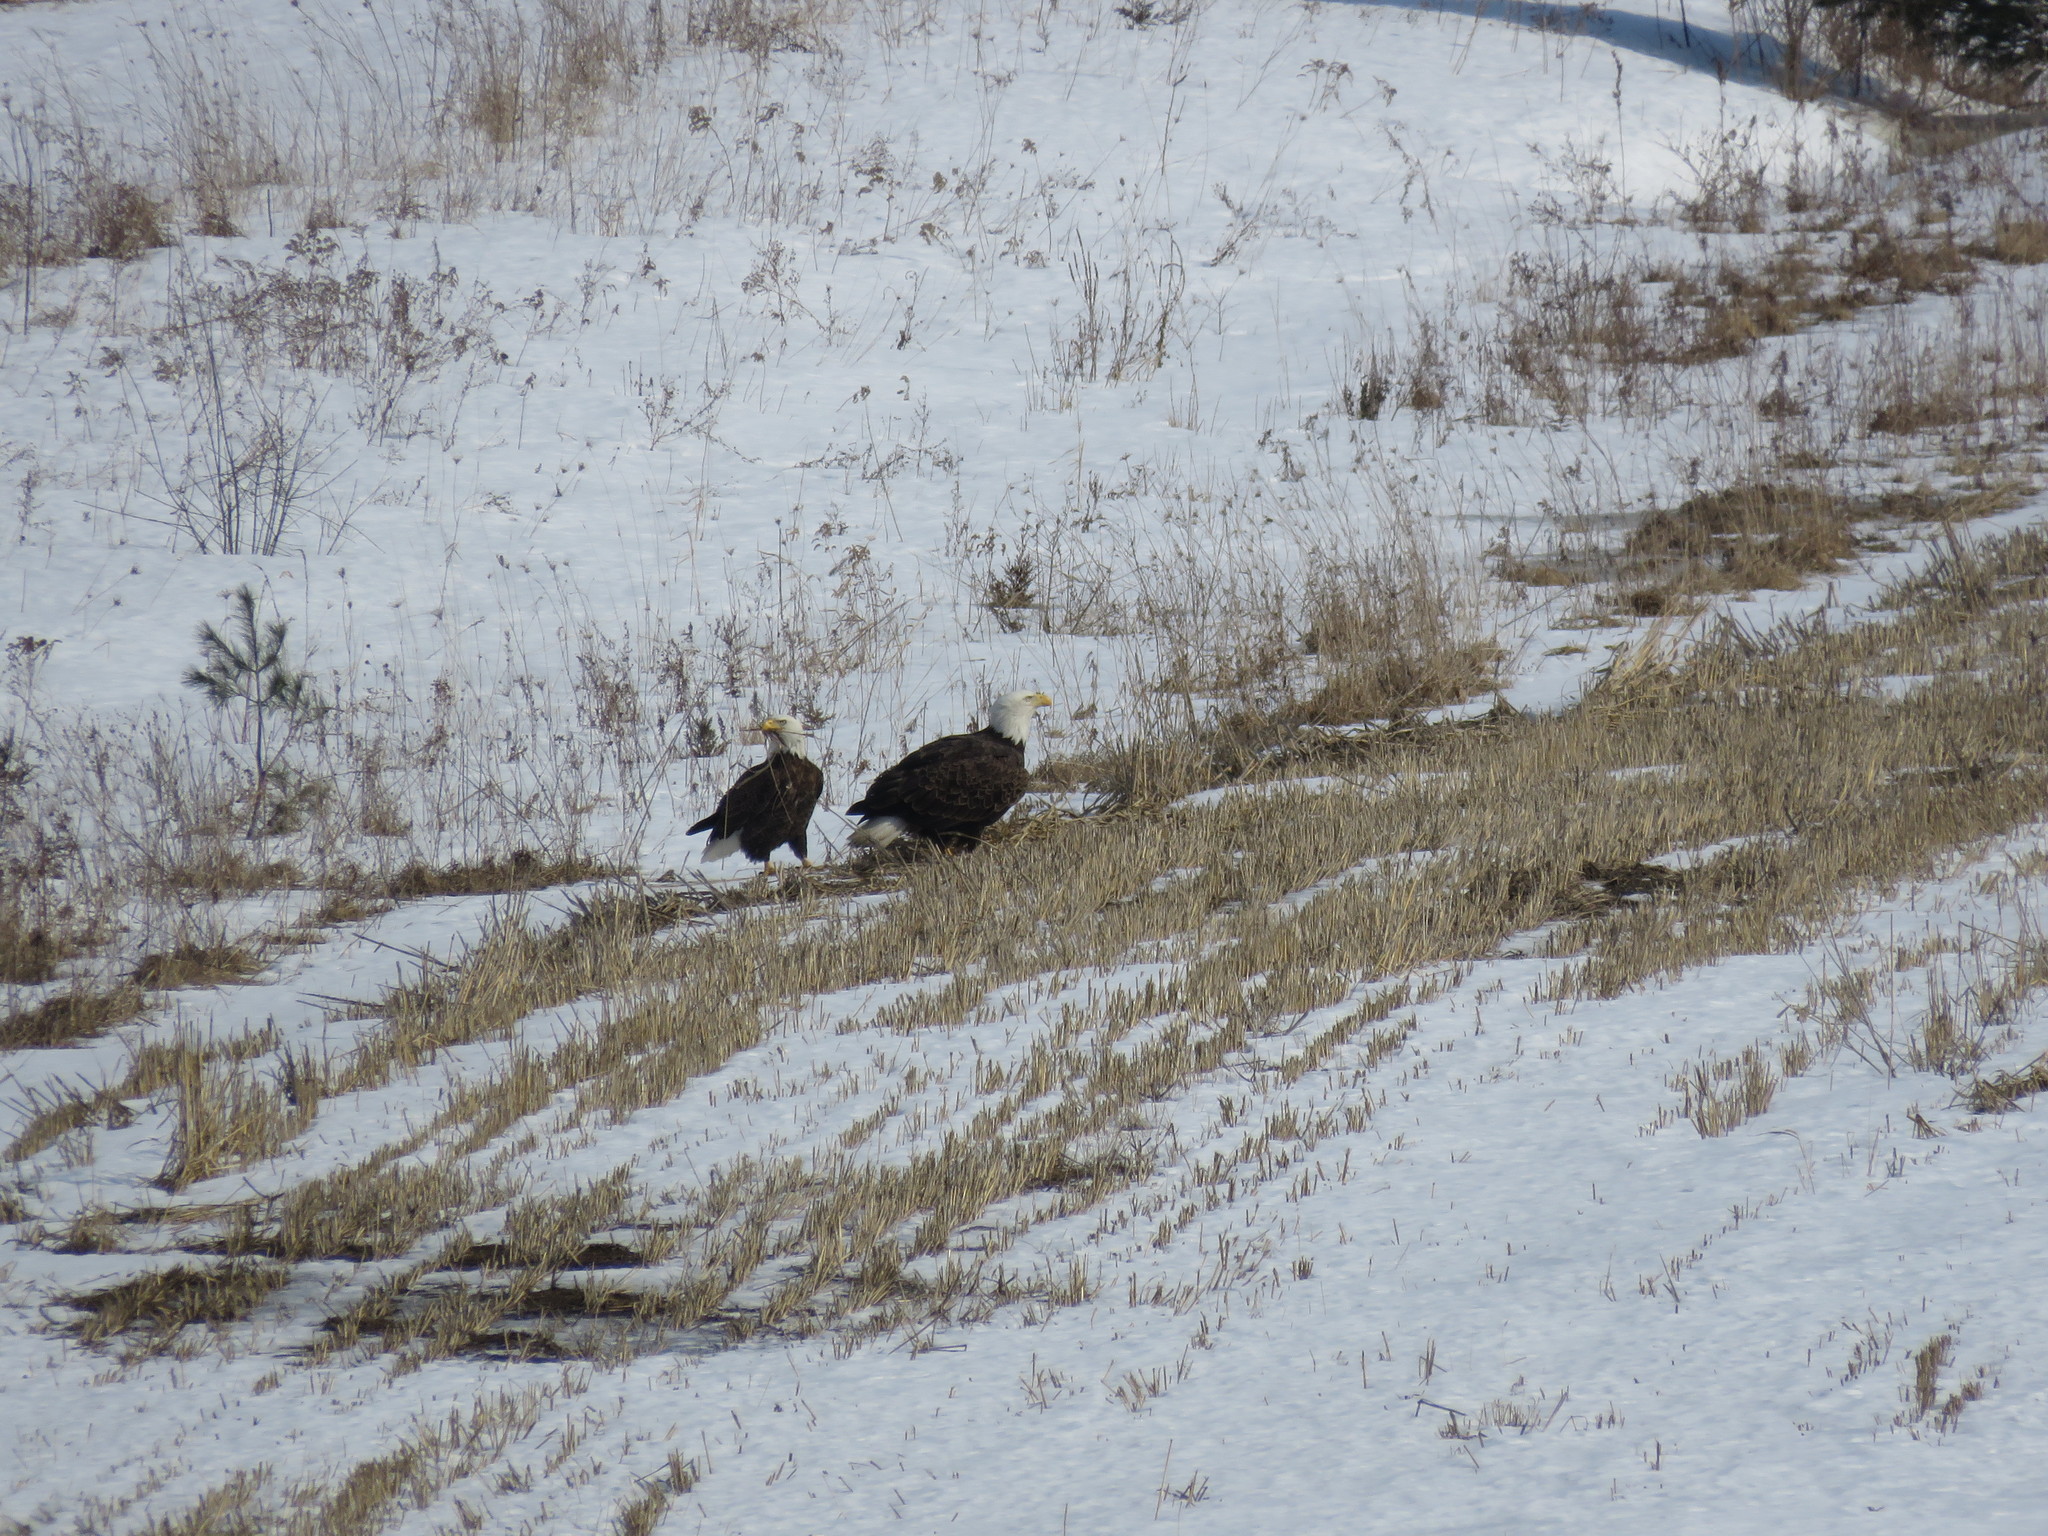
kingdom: Animalia
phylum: Chordata
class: Aves
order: Accipitriformes
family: Accipitridae
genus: Haliaeetus
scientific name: Haliaeetus leucocephalus
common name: Bald eagle
